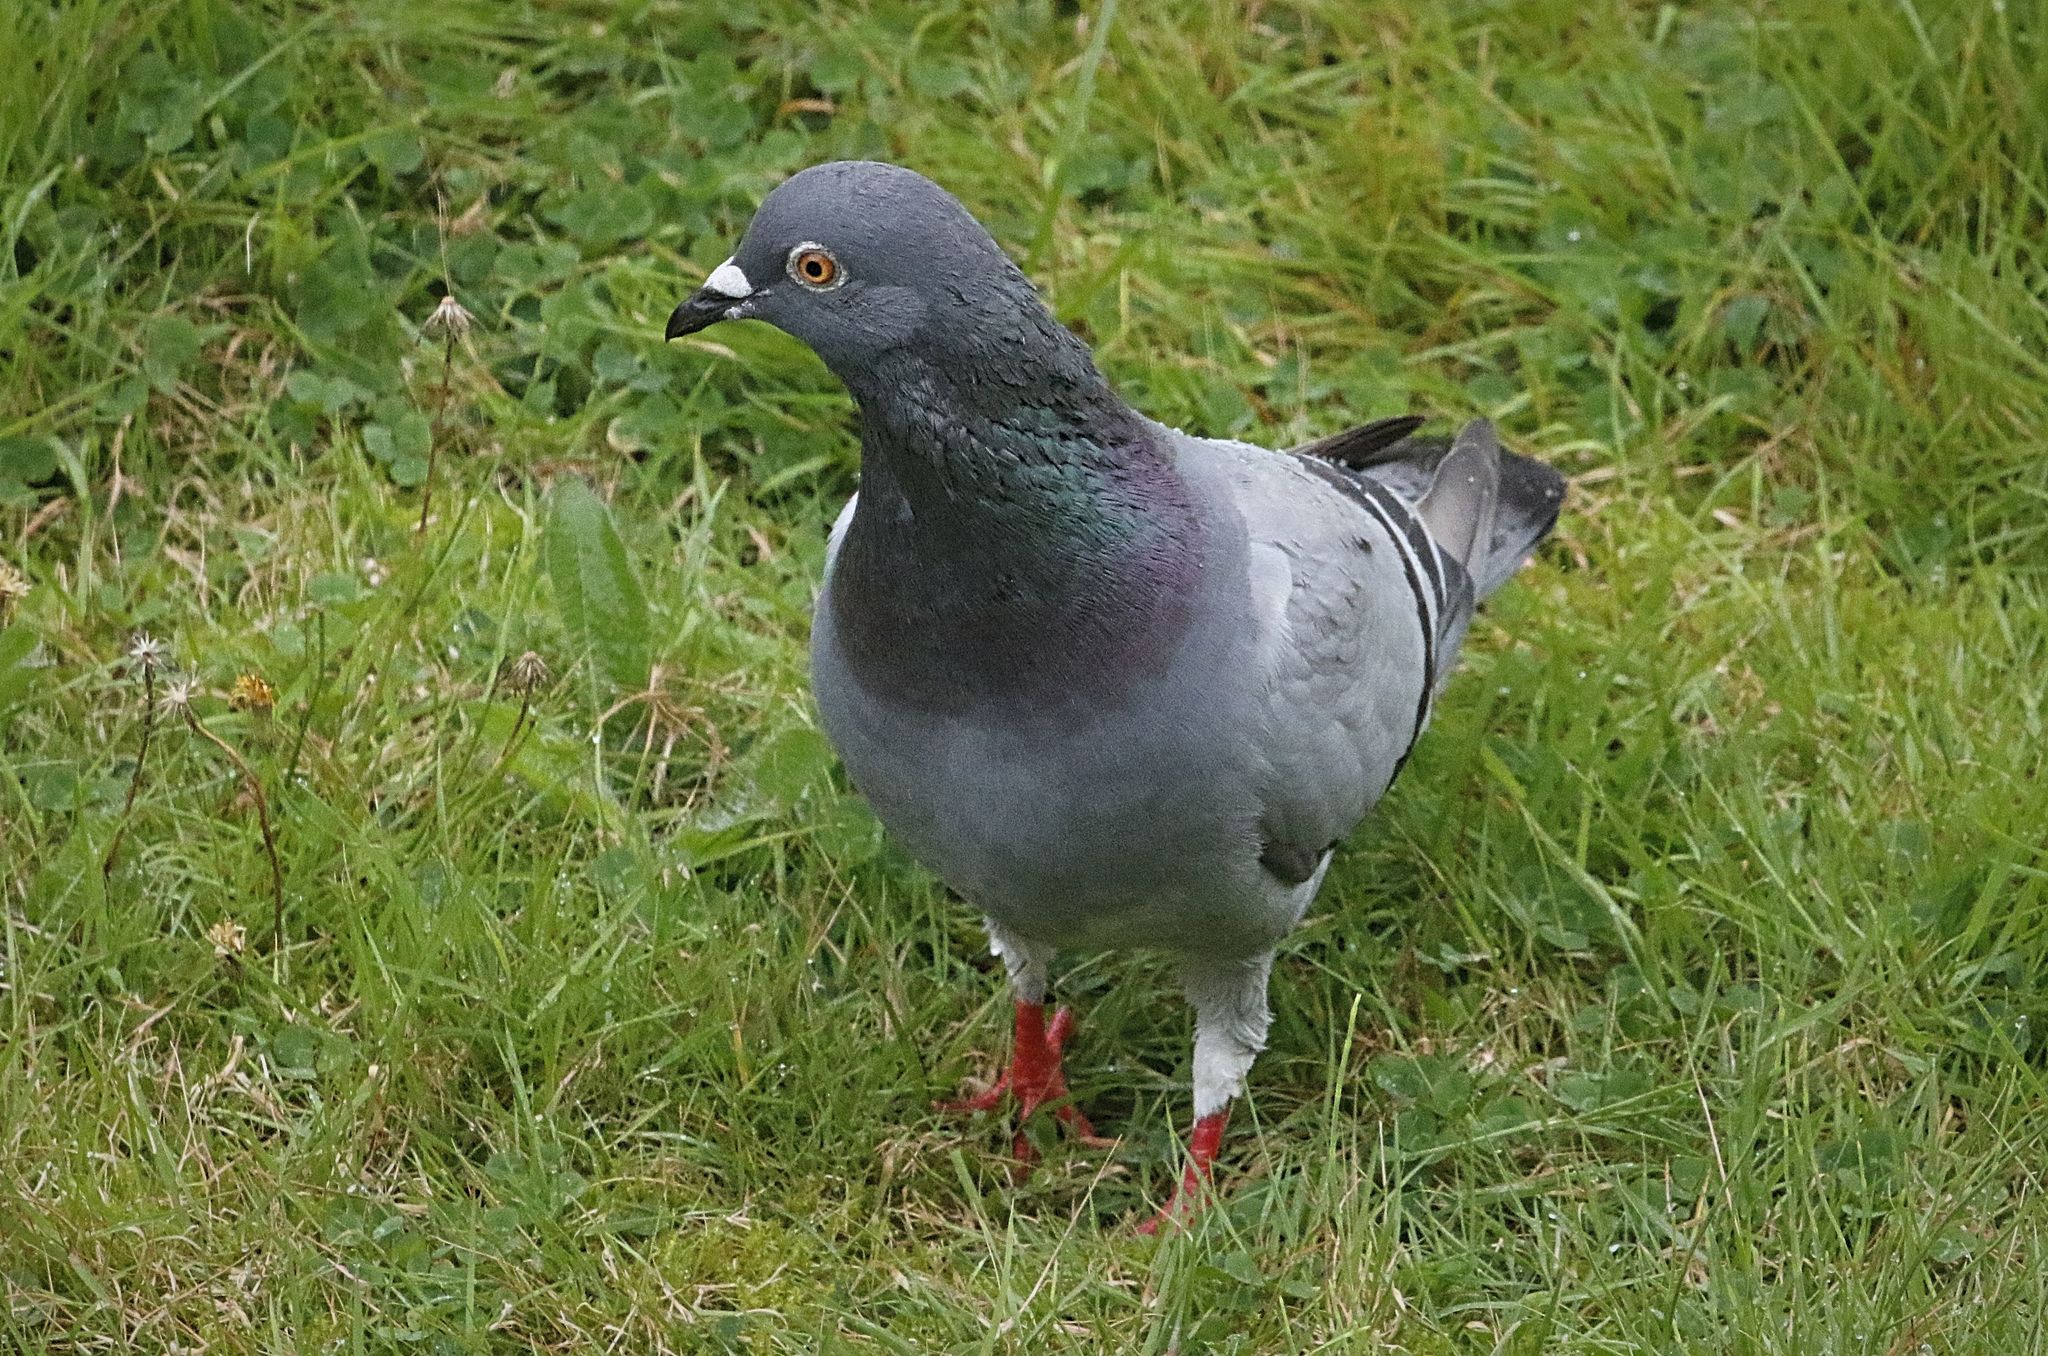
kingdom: Animalia
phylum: Chordata
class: Aves
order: Columbiformes
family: Columbidae
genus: Columba
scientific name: Columba livia
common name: Rock pigeon
